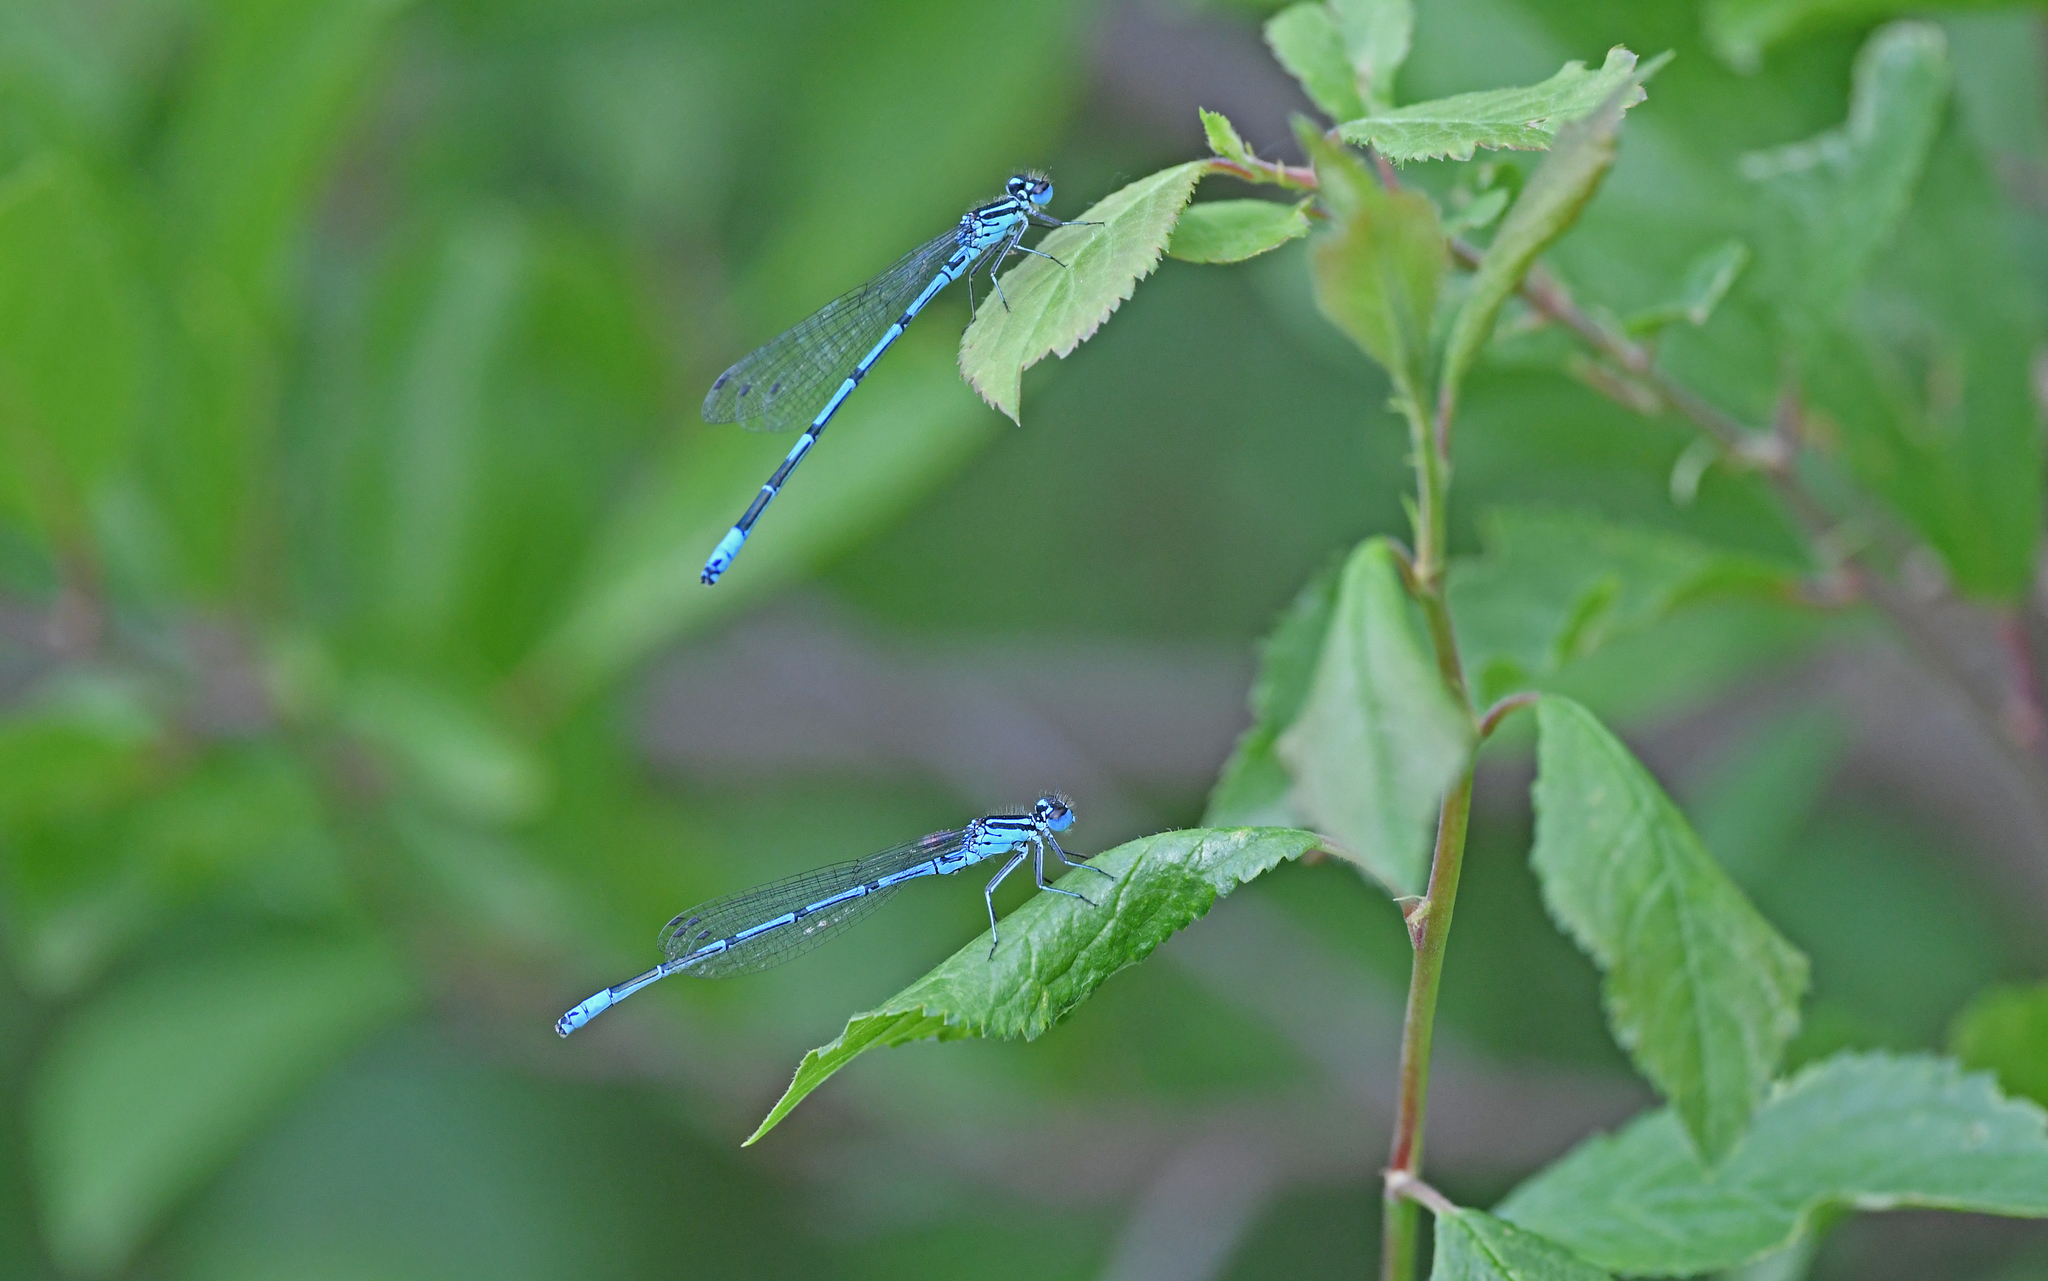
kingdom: Animalia
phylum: Arthropoda
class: Insecta
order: Odonata
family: Coenagrionidae
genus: Coenagrion
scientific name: Coenagrion puella
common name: Azure damselfly
